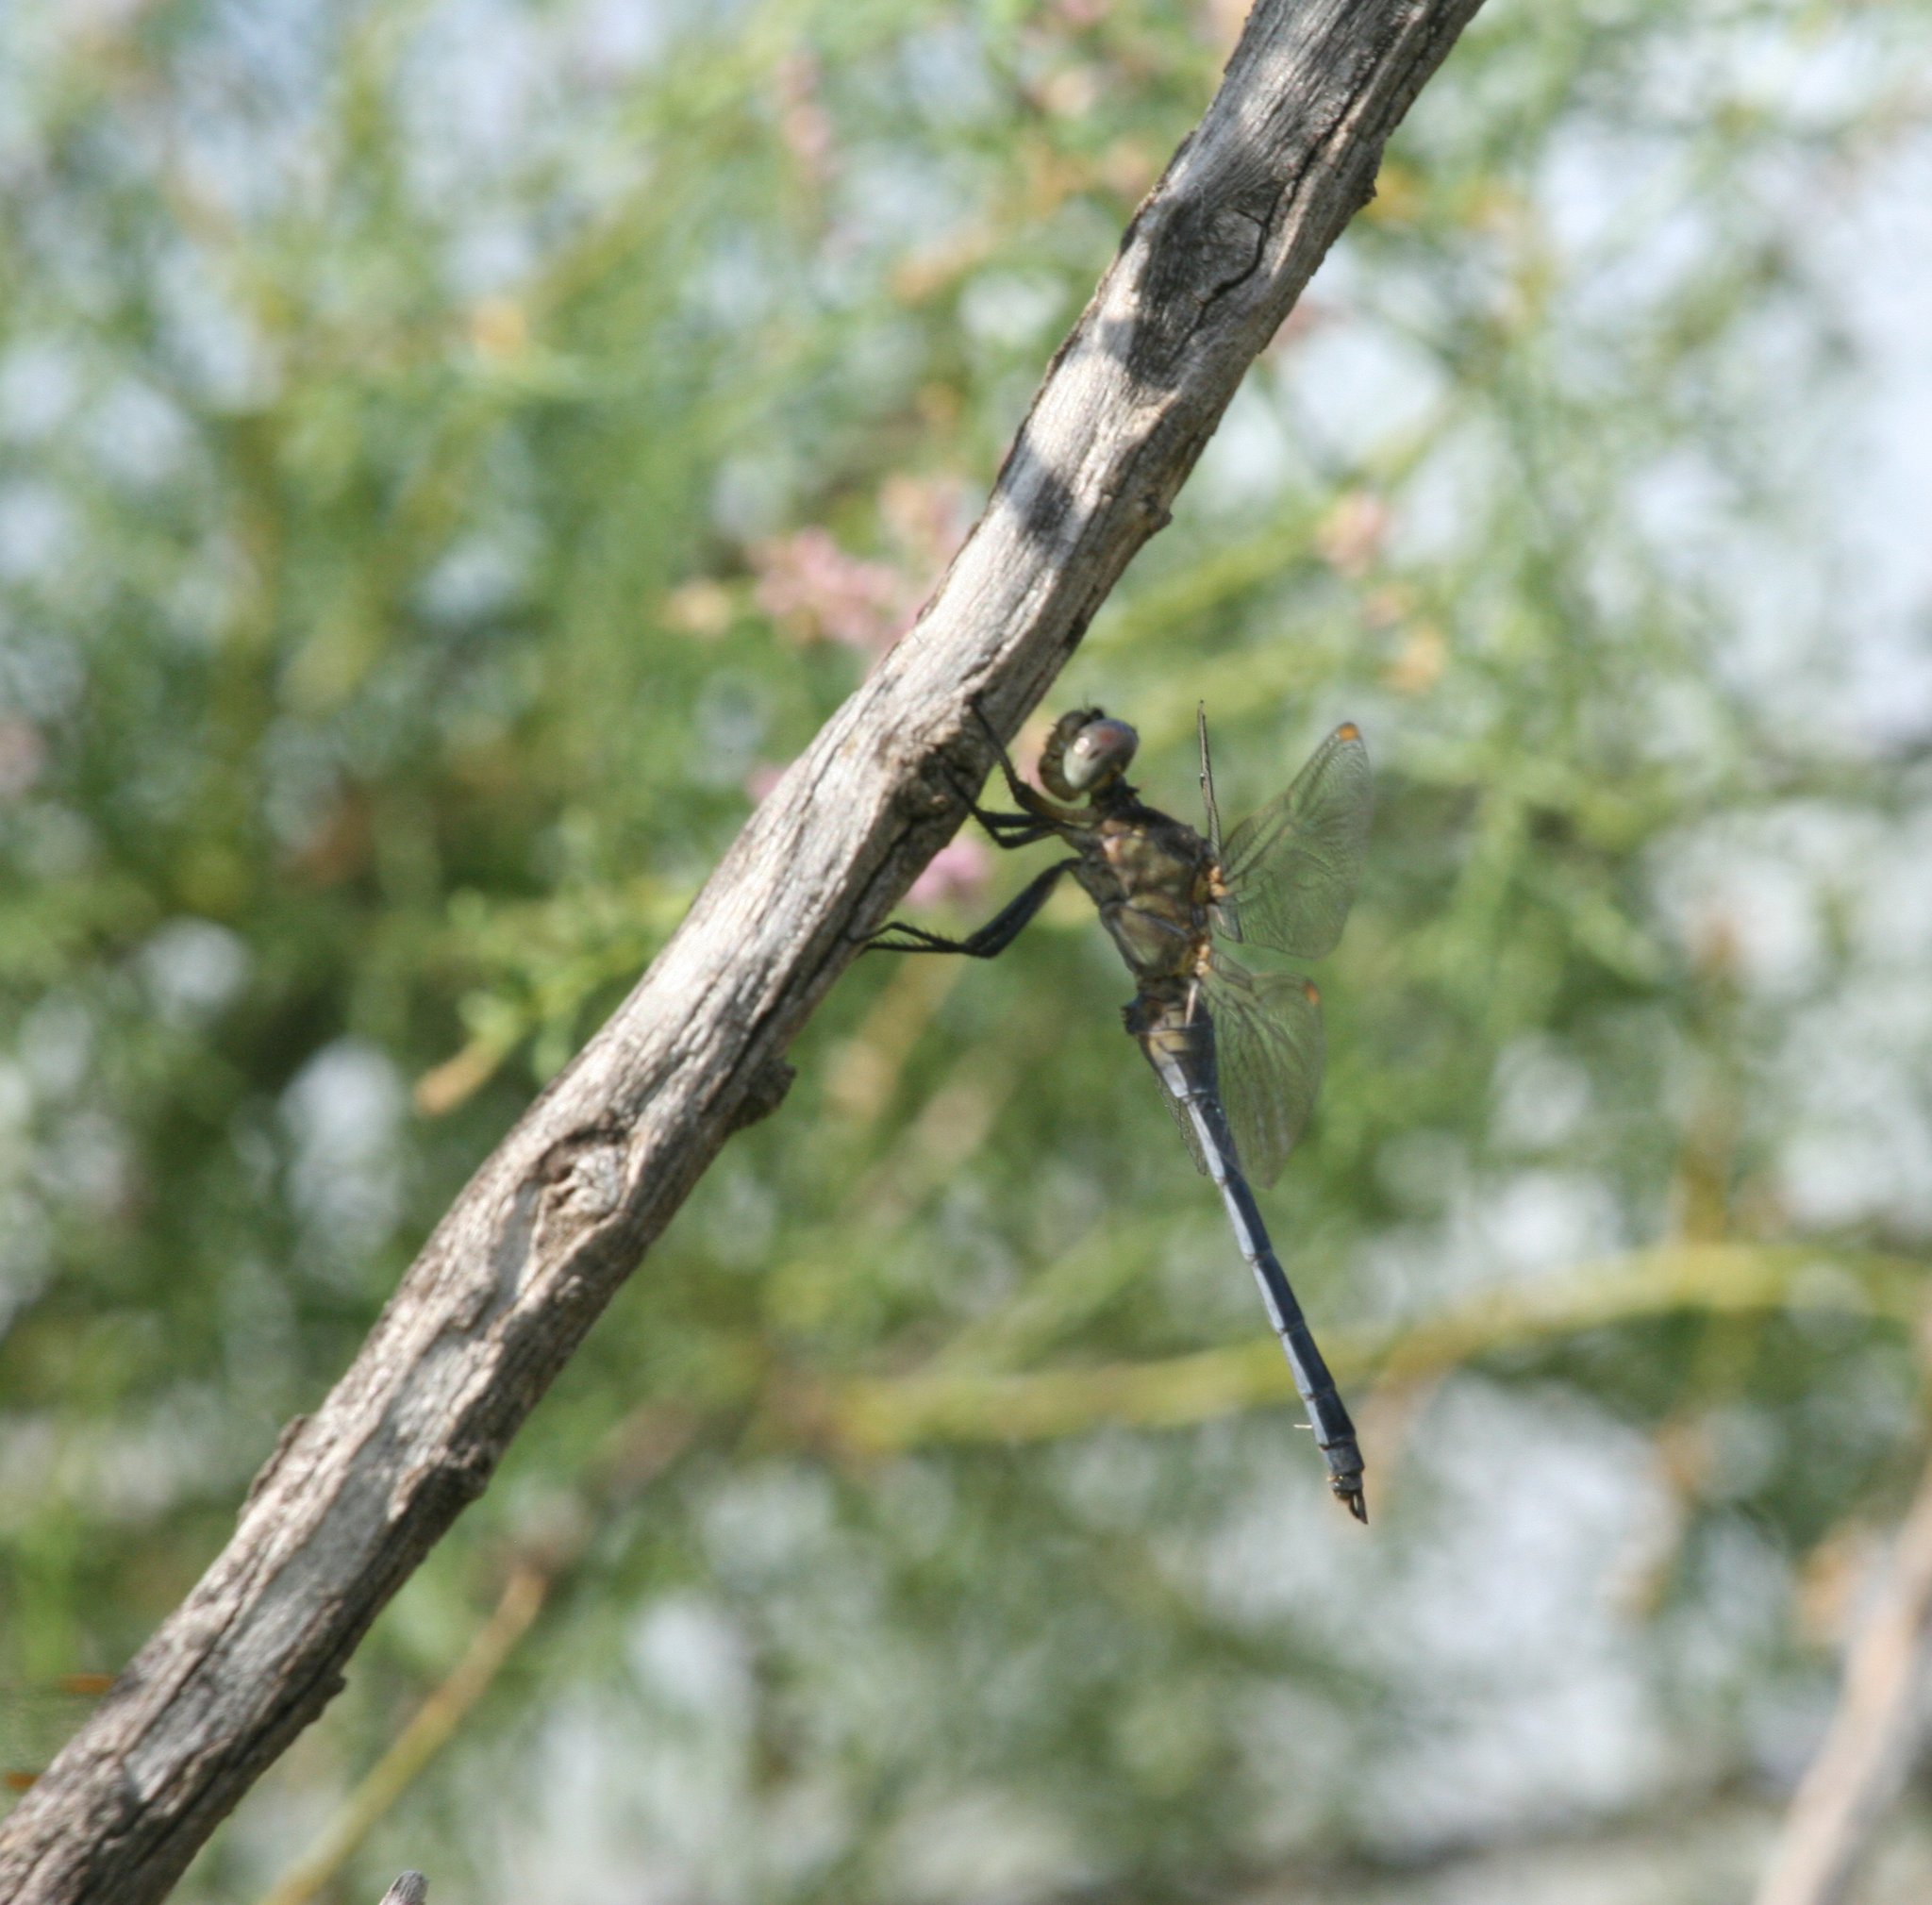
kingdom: Animalia
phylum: Arthropoda
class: Insecta
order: Odonata
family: Libellulidae
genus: Orthetrum
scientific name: Orthetrum coerulescens
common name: Keeled skimmer
